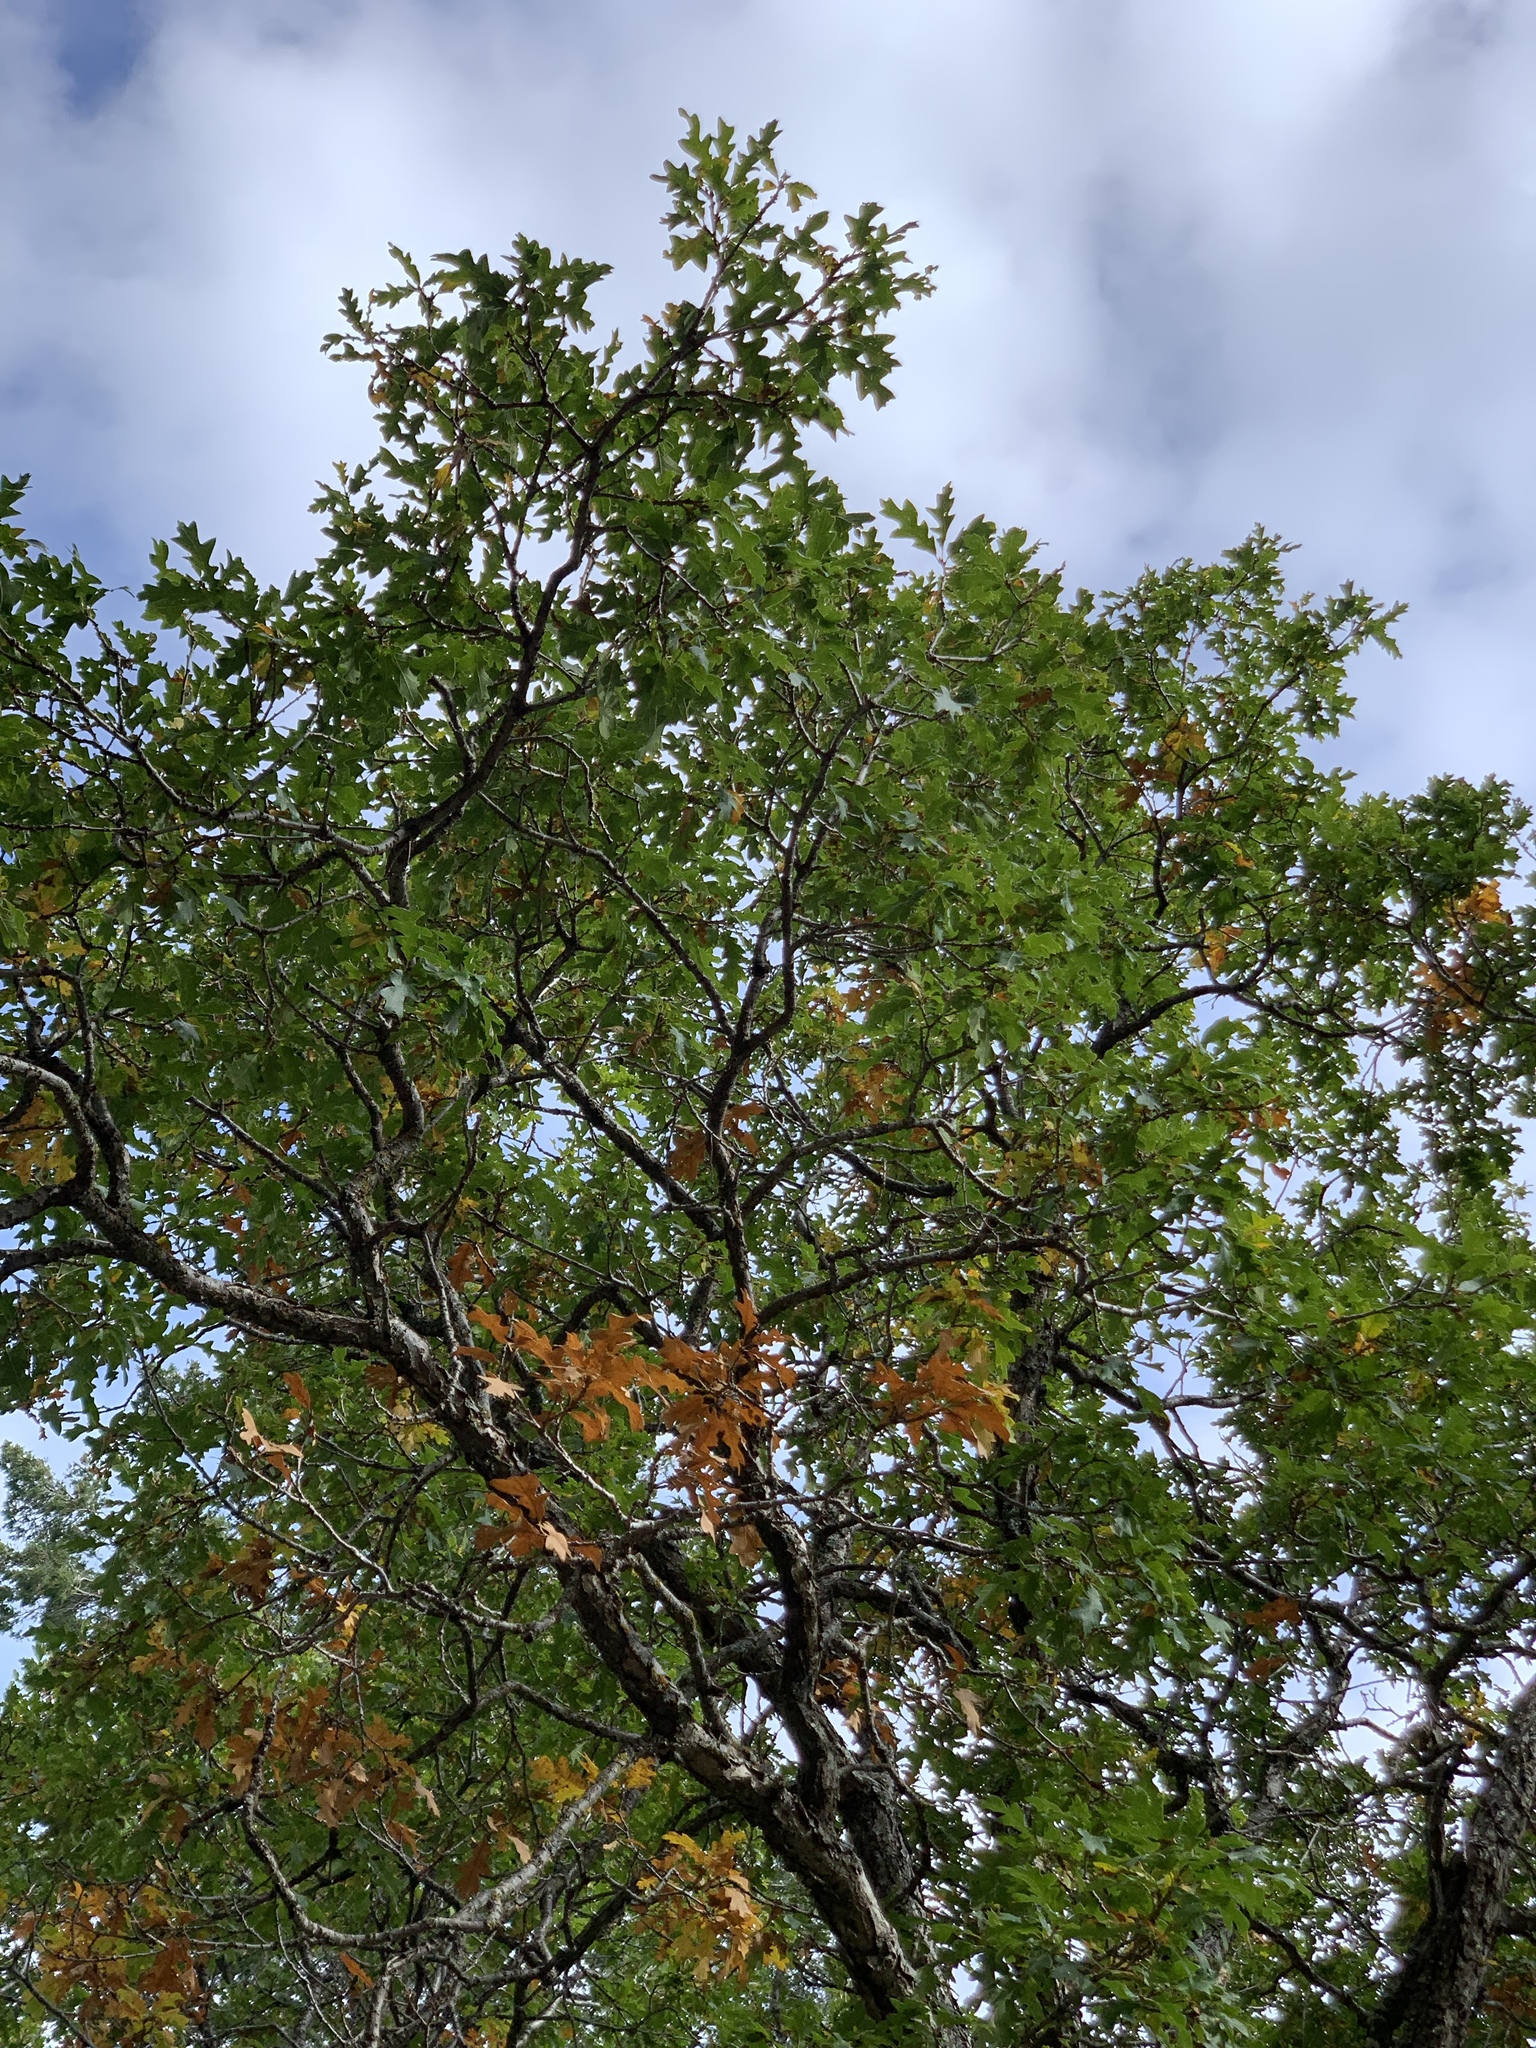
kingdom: Plantae
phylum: Tracheophyta
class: Magnoliopsida
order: Fagales
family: Fagaceae
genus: Quercus
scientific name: Quercus gambelii
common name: Gambel oak
